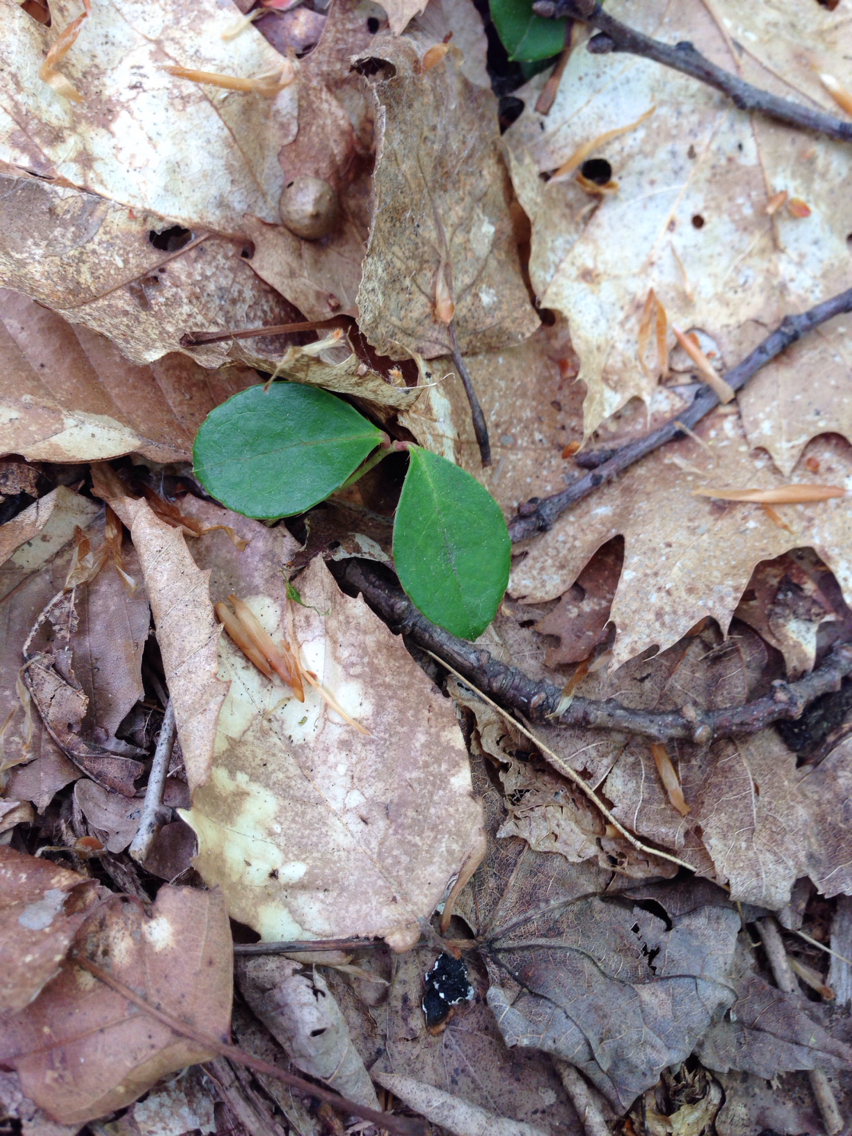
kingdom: Plantae
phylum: Tracheophyta
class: Magnoliopsida
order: Ericales
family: Ericaceae
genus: Gaultheria
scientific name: Gaultheria procumbens
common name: Checkerberry
